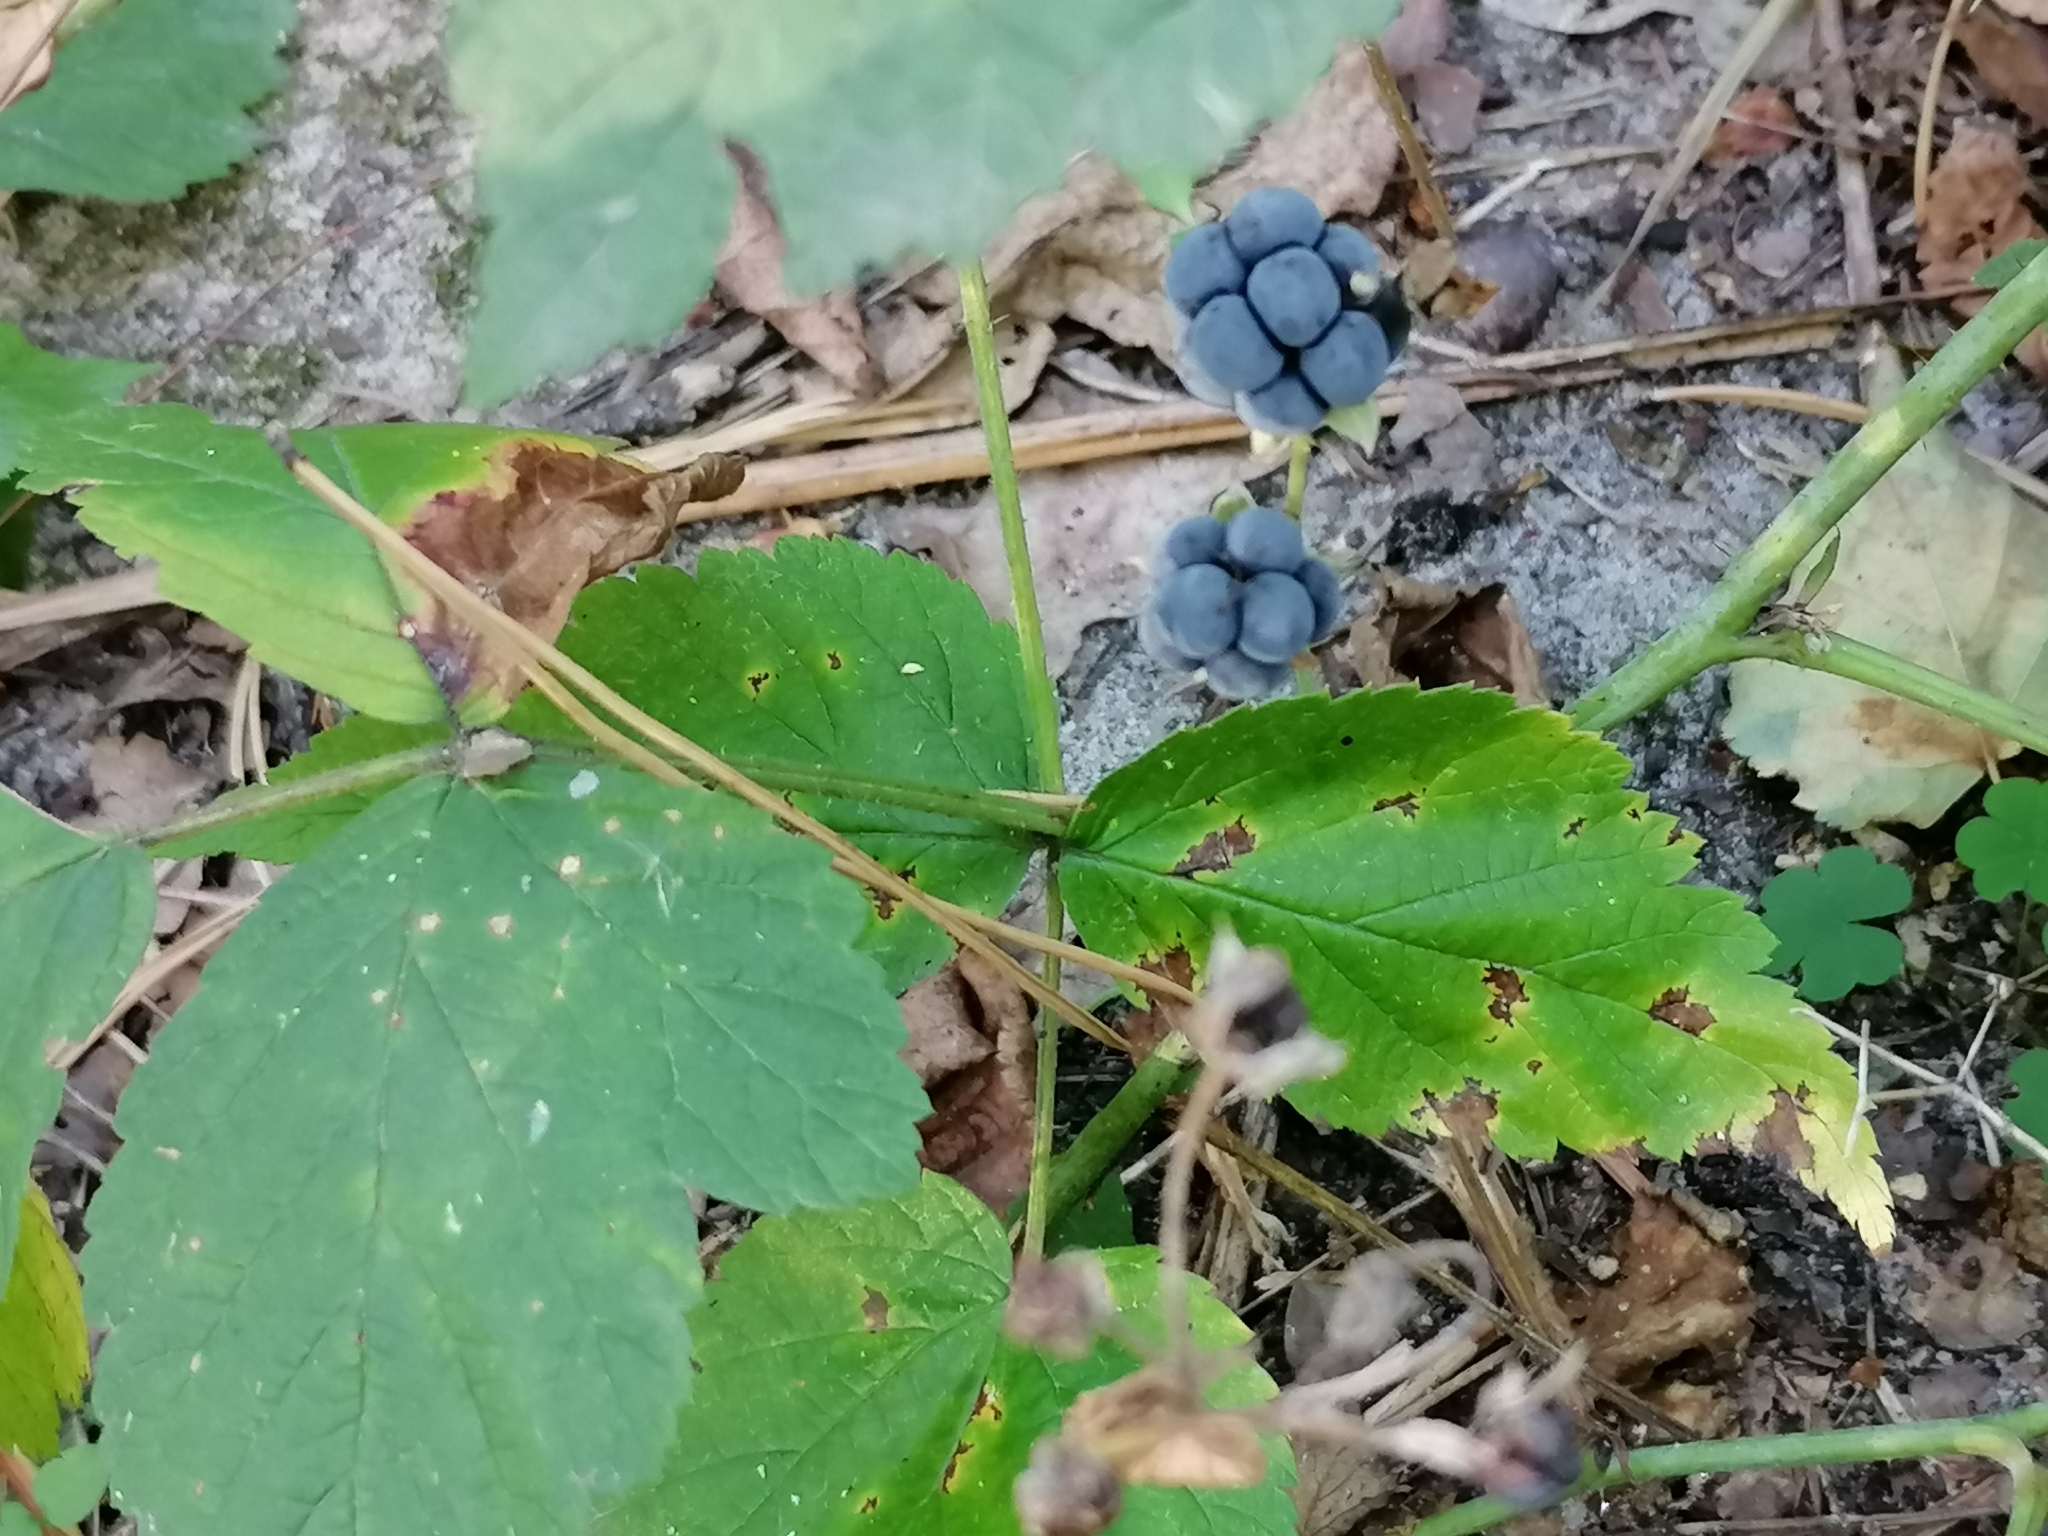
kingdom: Plantae
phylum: Tracheophyta
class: Magnoliopsida
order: Rosales
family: Rosaceae
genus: Rubus
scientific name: Rubus caesius
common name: Dewberry
